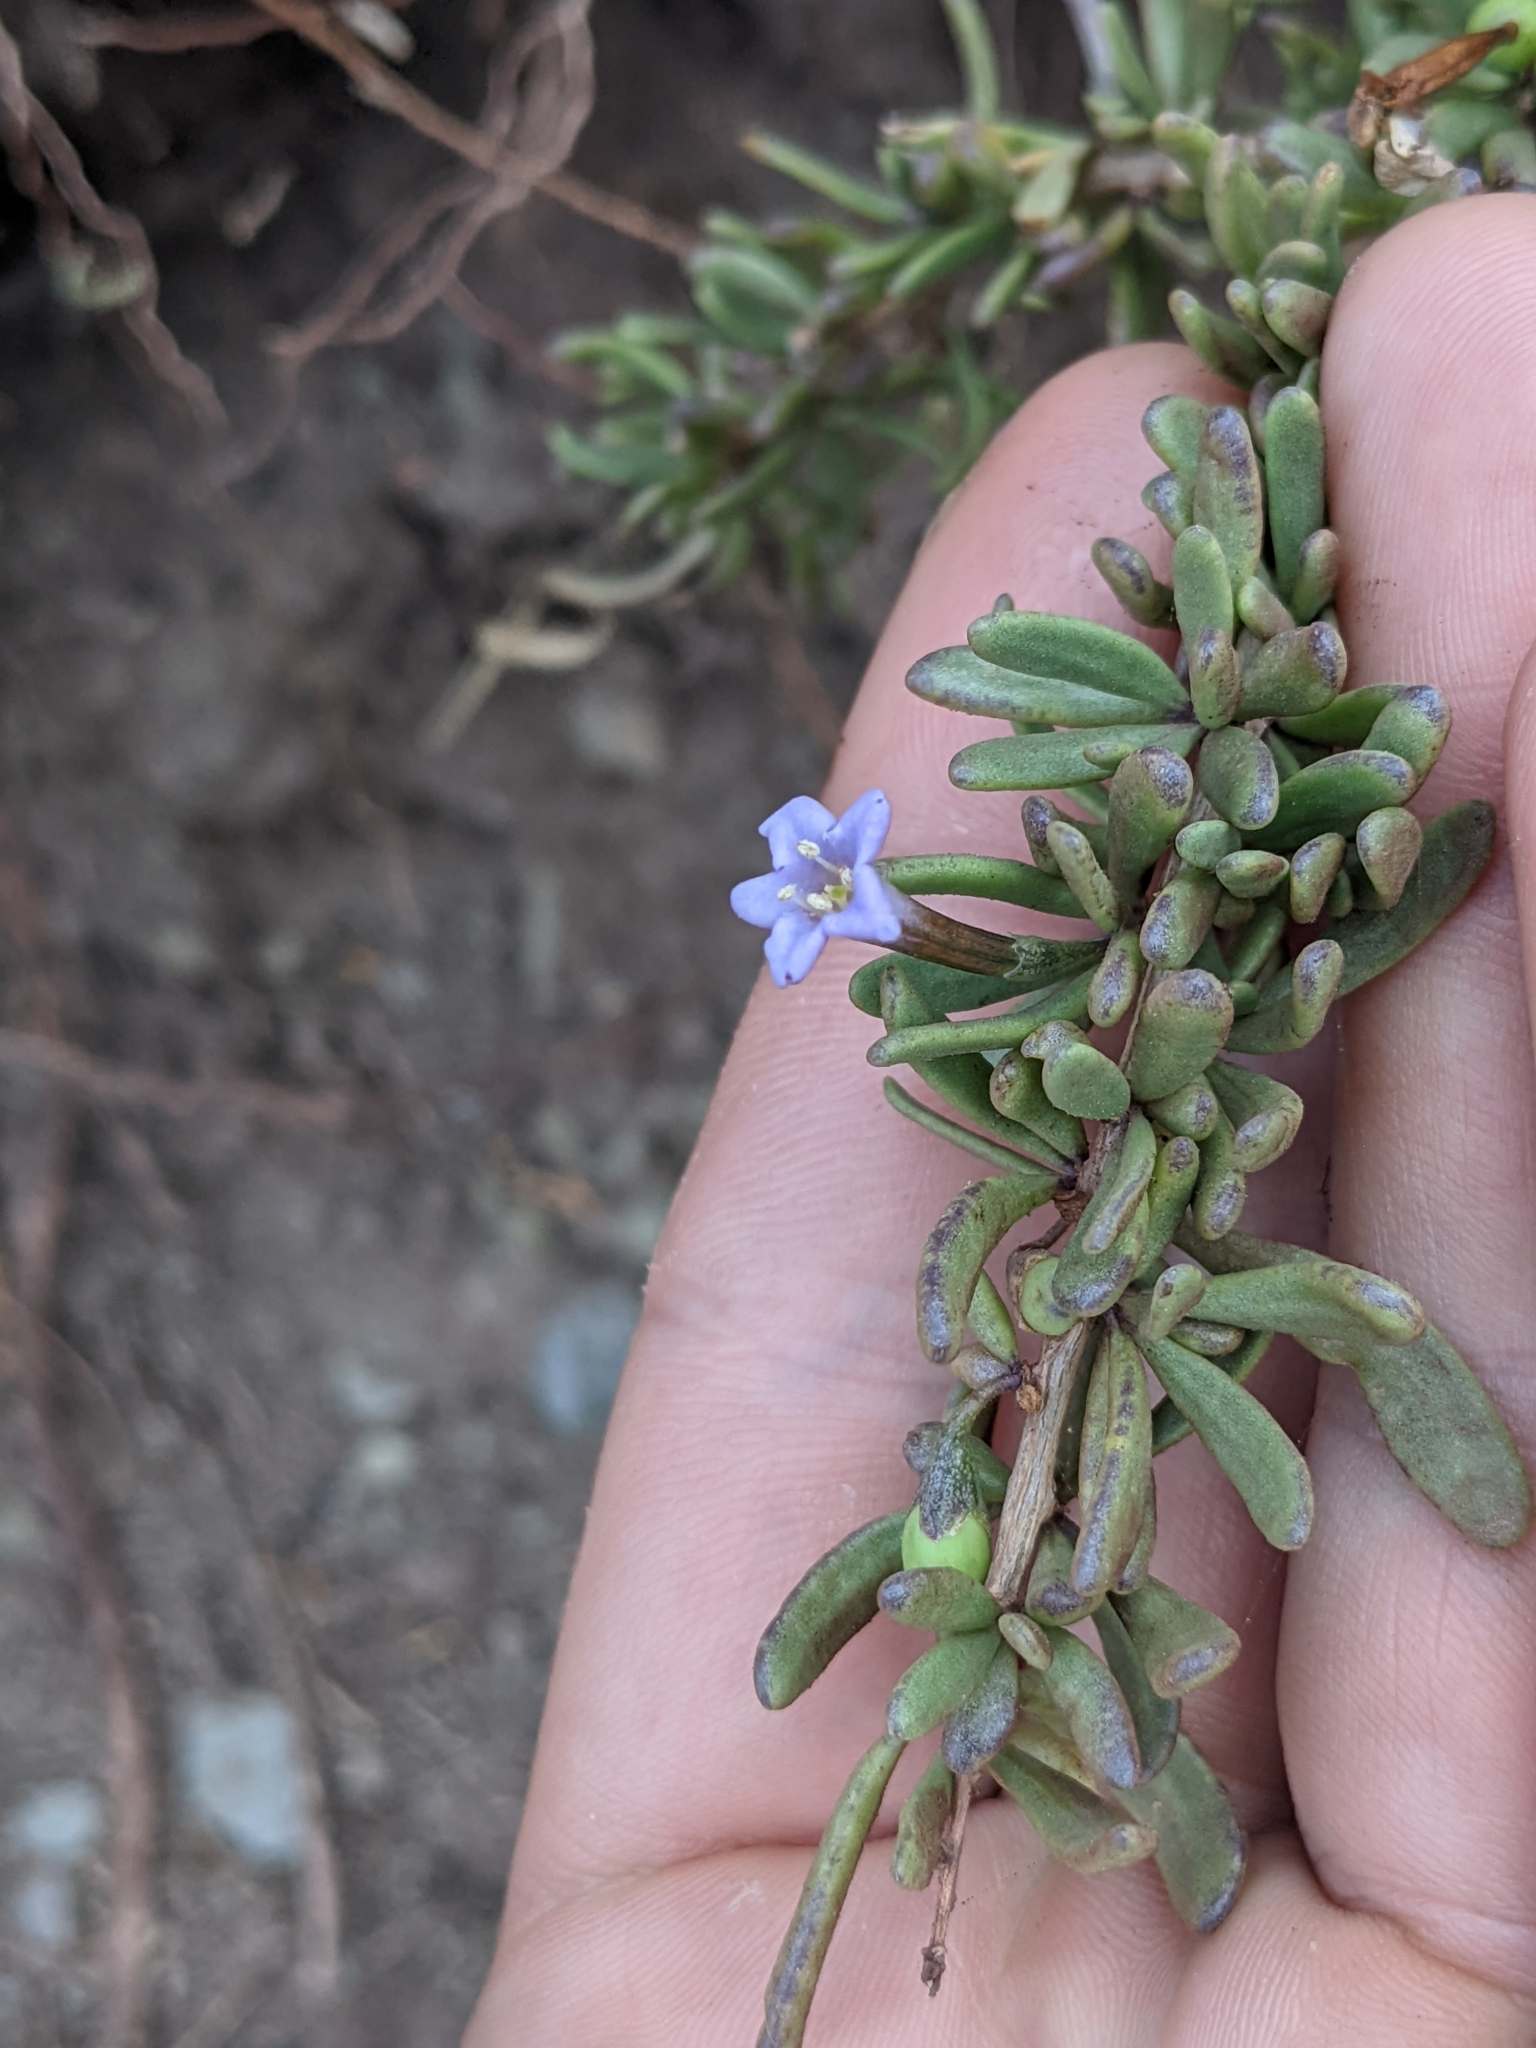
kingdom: Plantae
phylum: Tracheophyta
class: Magnoliopsida
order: Solanales
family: Solanaceae
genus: Lycium
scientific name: Lycium intricatum
